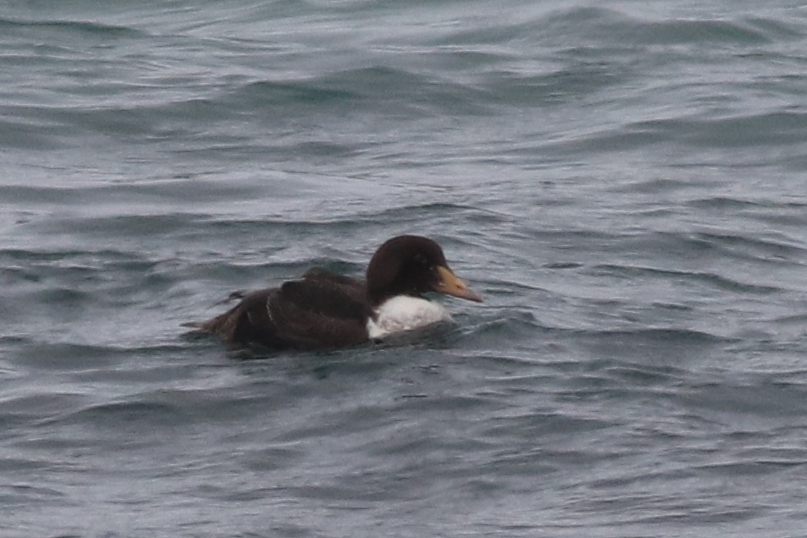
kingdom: Animalia
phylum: Chordata
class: Aves
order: Anseriformes
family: Anatidae
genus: Somateria
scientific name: Somateria spectabilis
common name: King eider
